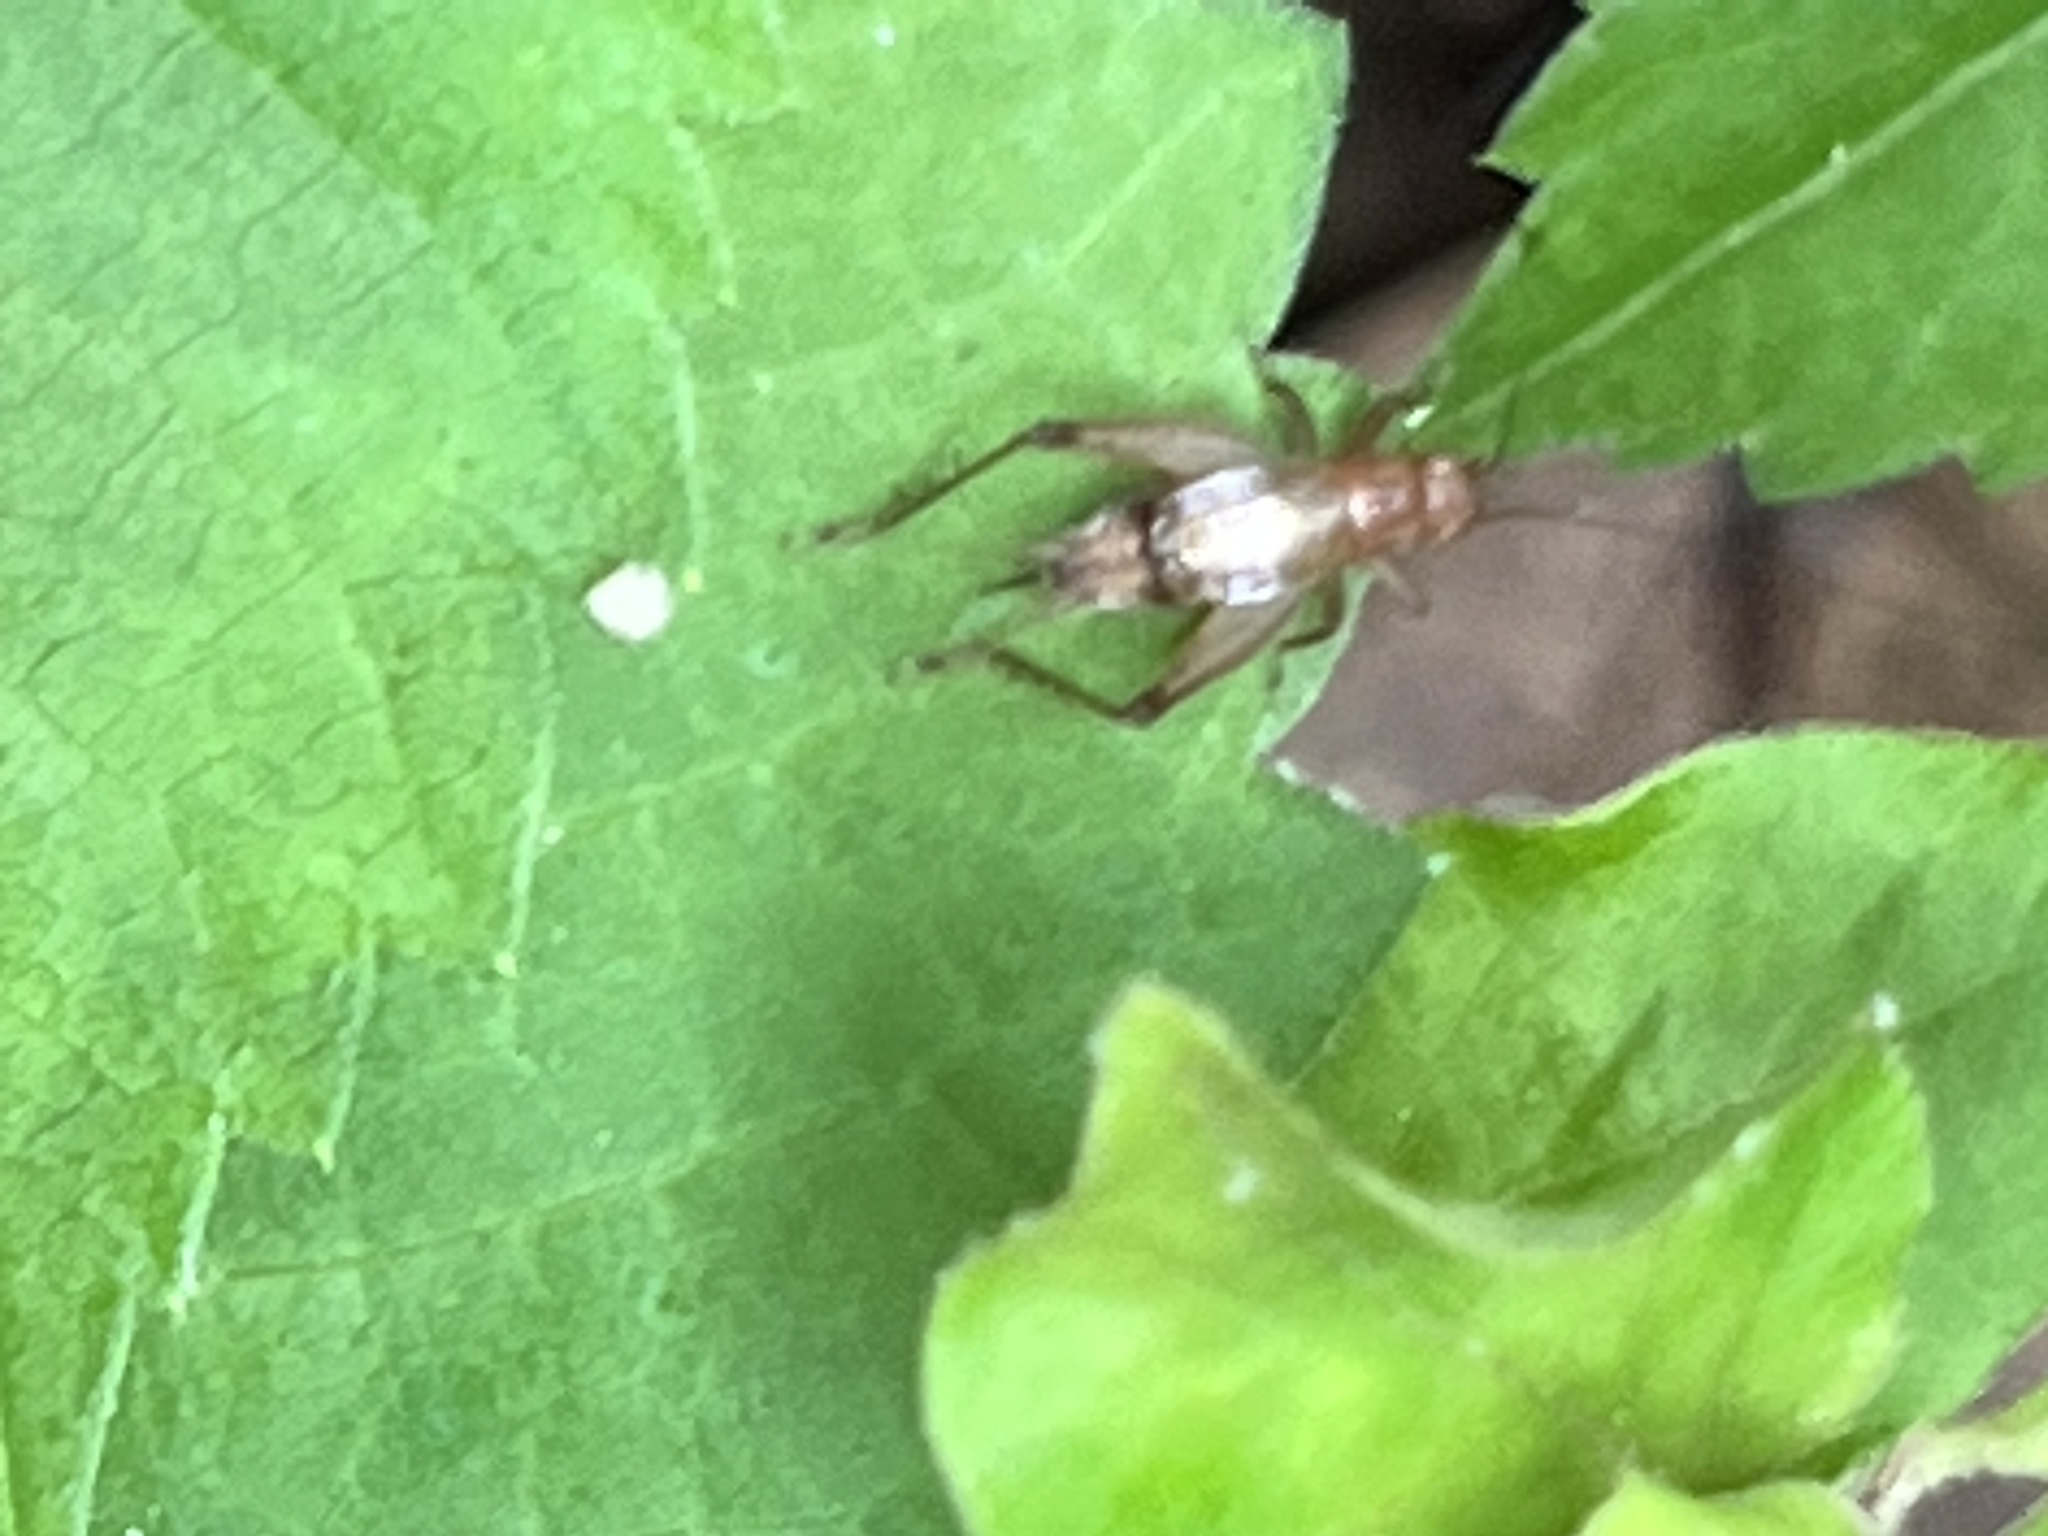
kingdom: Animalia
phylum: Arthropoda
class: Insecta
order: Orthoptera
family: Trigonidiidae
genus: Anaxipha
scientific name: Anaxipha vernalis
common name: Spring trig
